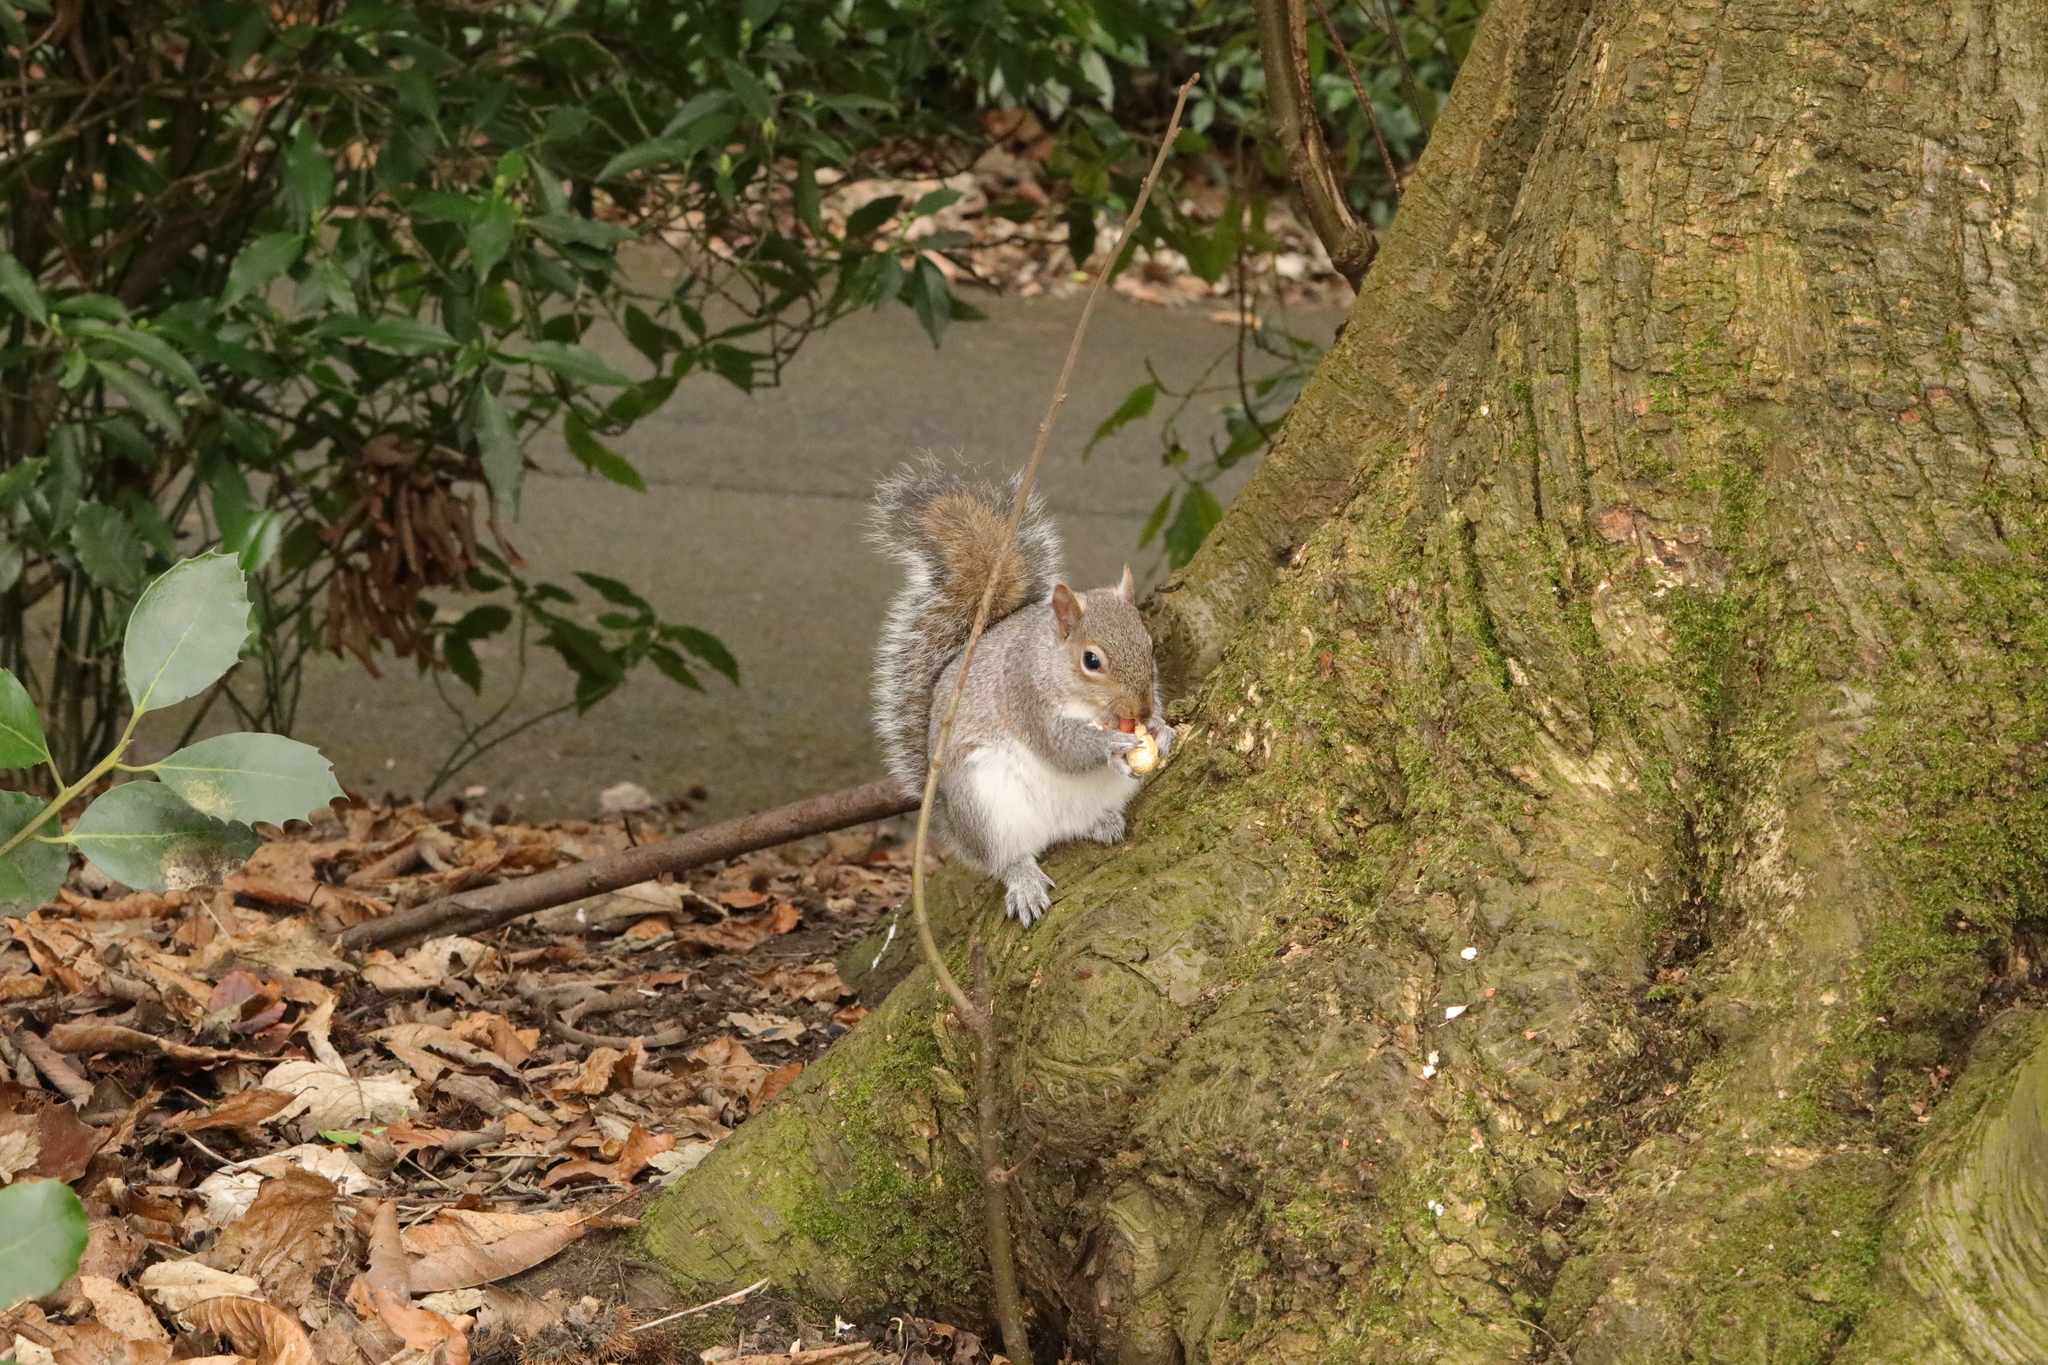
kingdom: Animalia
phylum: Chordata
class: Mammalia
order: Rodentia
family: Sciuridae
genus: Sciurus
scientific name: Sciurus carolinensis
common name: Eastern gray squirrel
